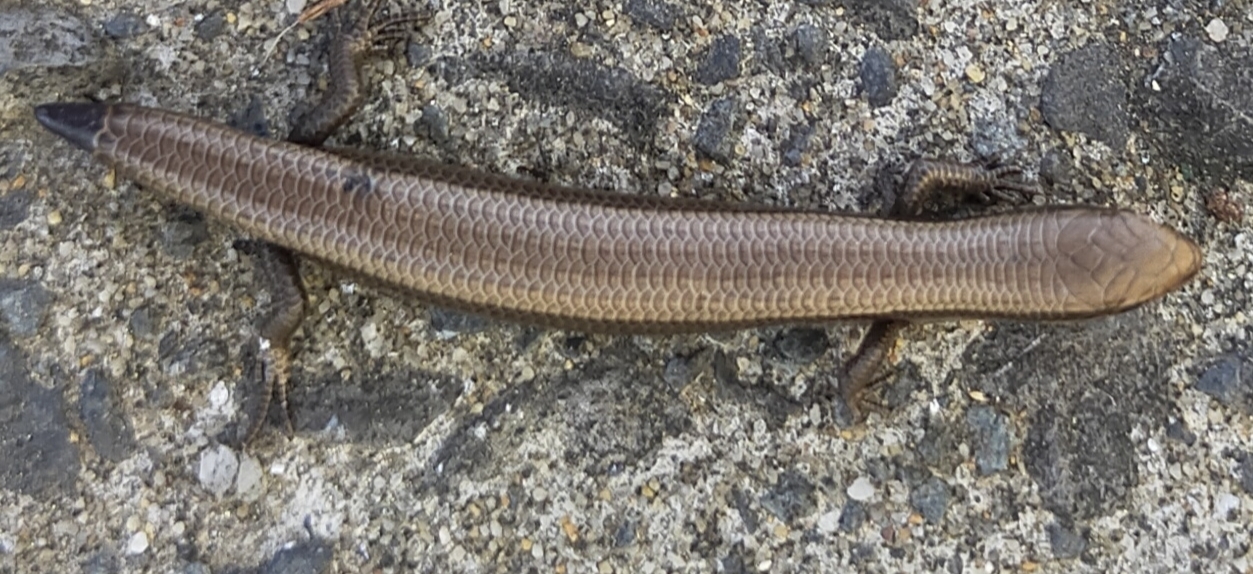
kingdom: Animalia
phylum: Chordata
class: Squamata
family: Scincidae
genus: Ablepharus
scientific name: Ablepharus kitaibelii
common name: Juniper skink
